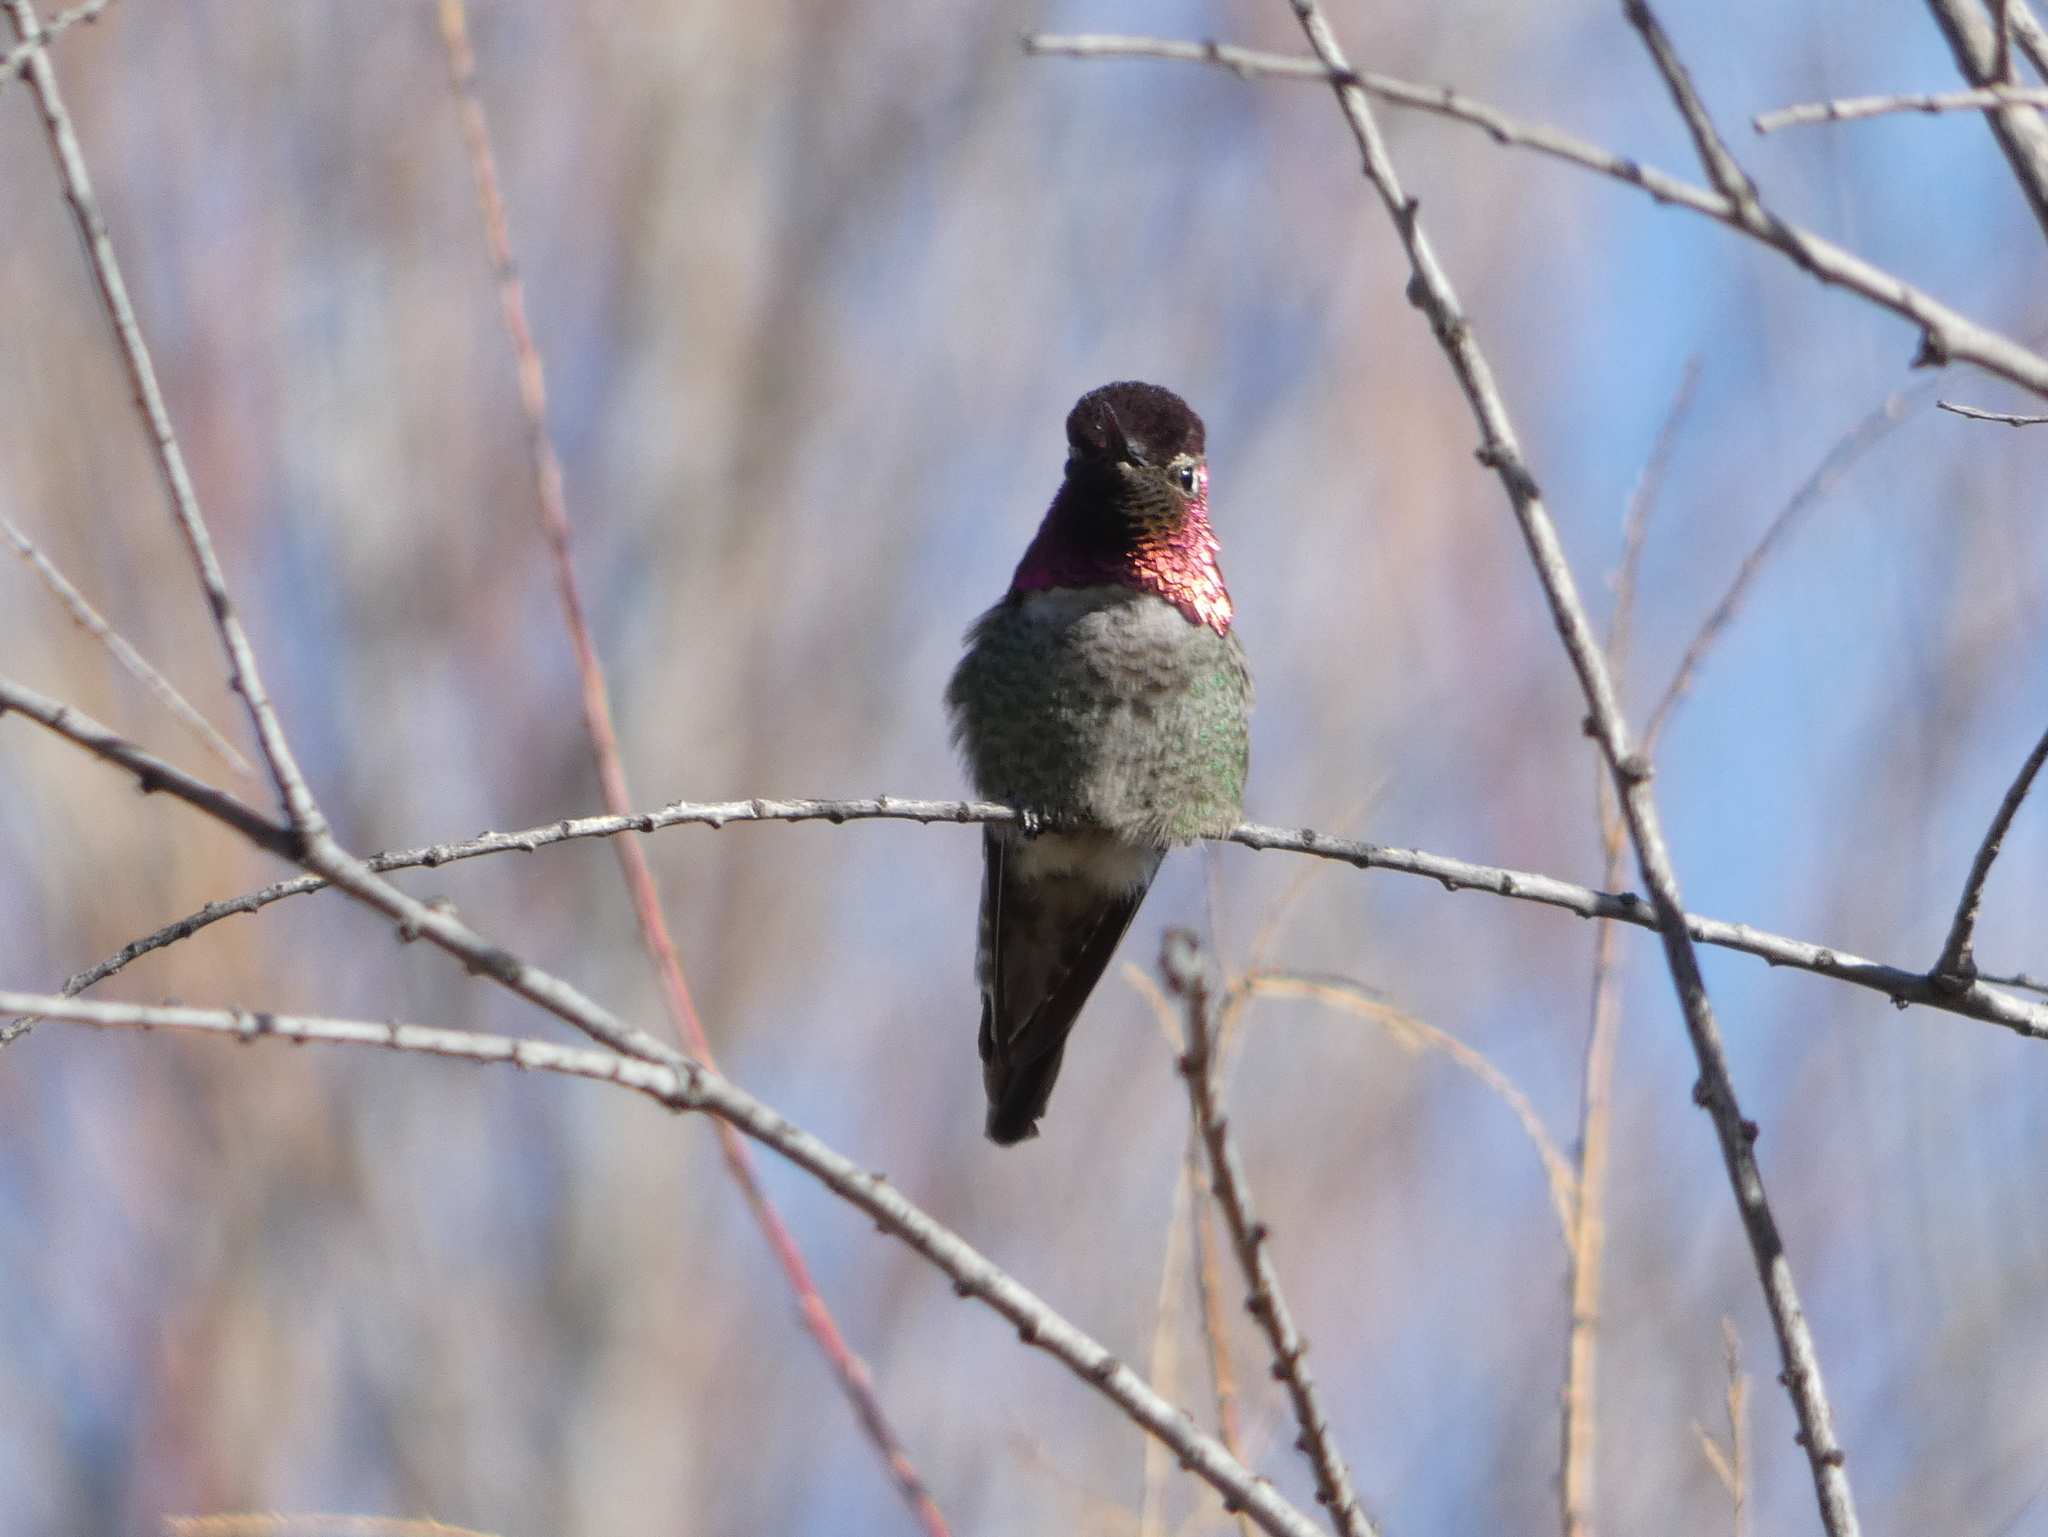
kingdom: Animalia
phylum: Chordata
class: Aves
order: Apodiformes
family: Trochilidae
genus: Calypte
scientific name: Calypte anna
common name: Anna's hummingbird
